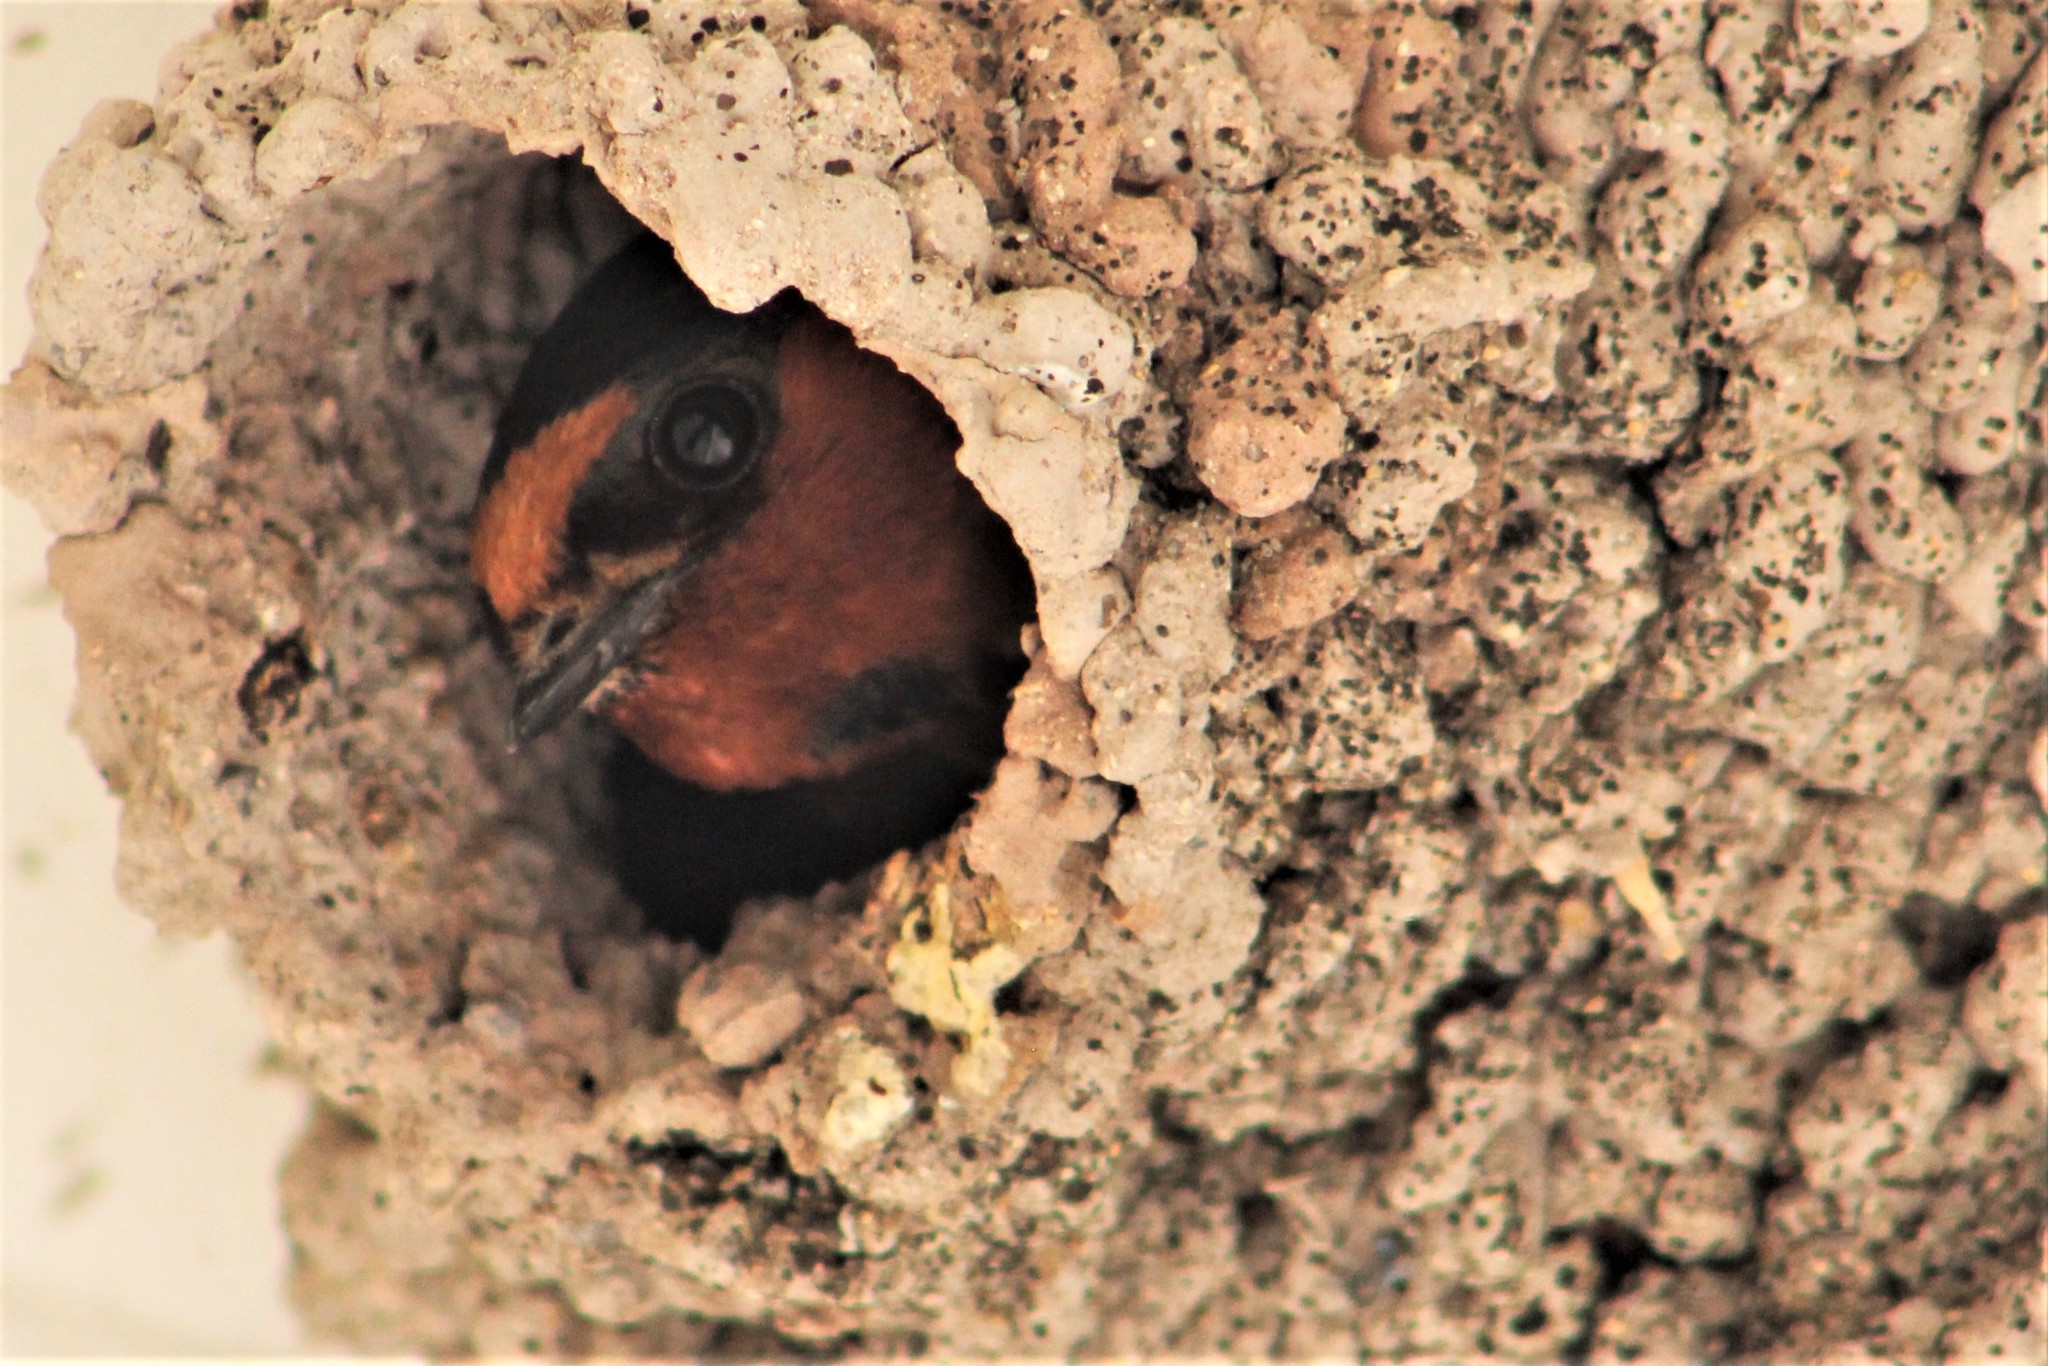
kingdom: Animalia
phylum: Chordata
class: Aves
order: Passeriformes
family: Hirundinidae
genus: Petrochelidon
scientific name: Petrochelidon pyrrhonota
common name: American cliff swallow
